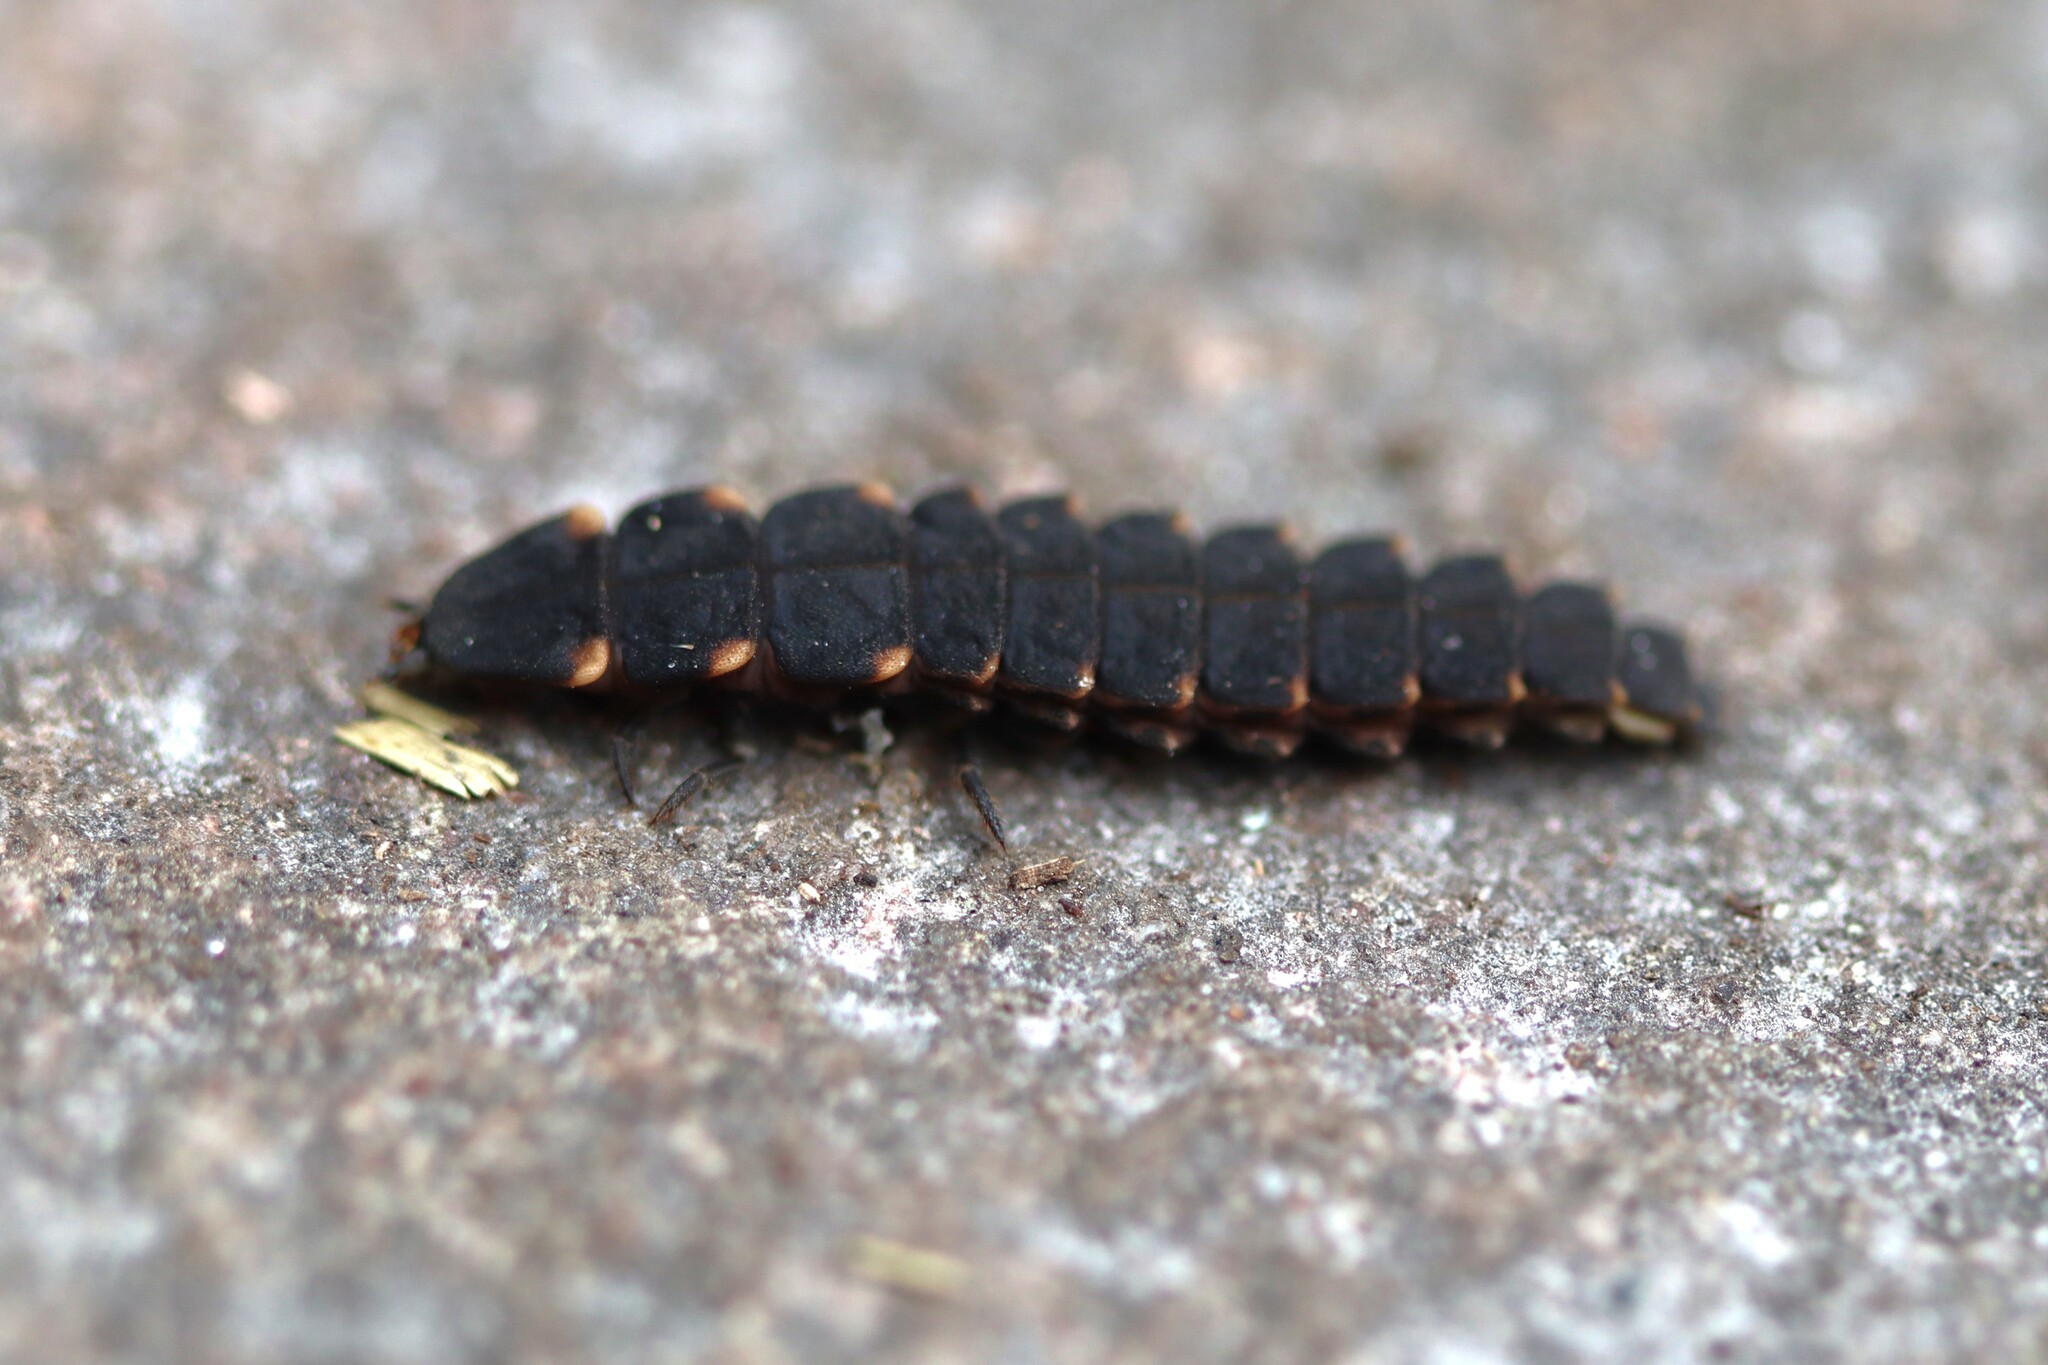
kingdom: Animalia
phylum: Arthropoda
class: Insecta
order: Coleoptera
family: Lampyridae
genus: Lampyris
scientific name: Lampyris noctiluca
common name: Glow-worm
